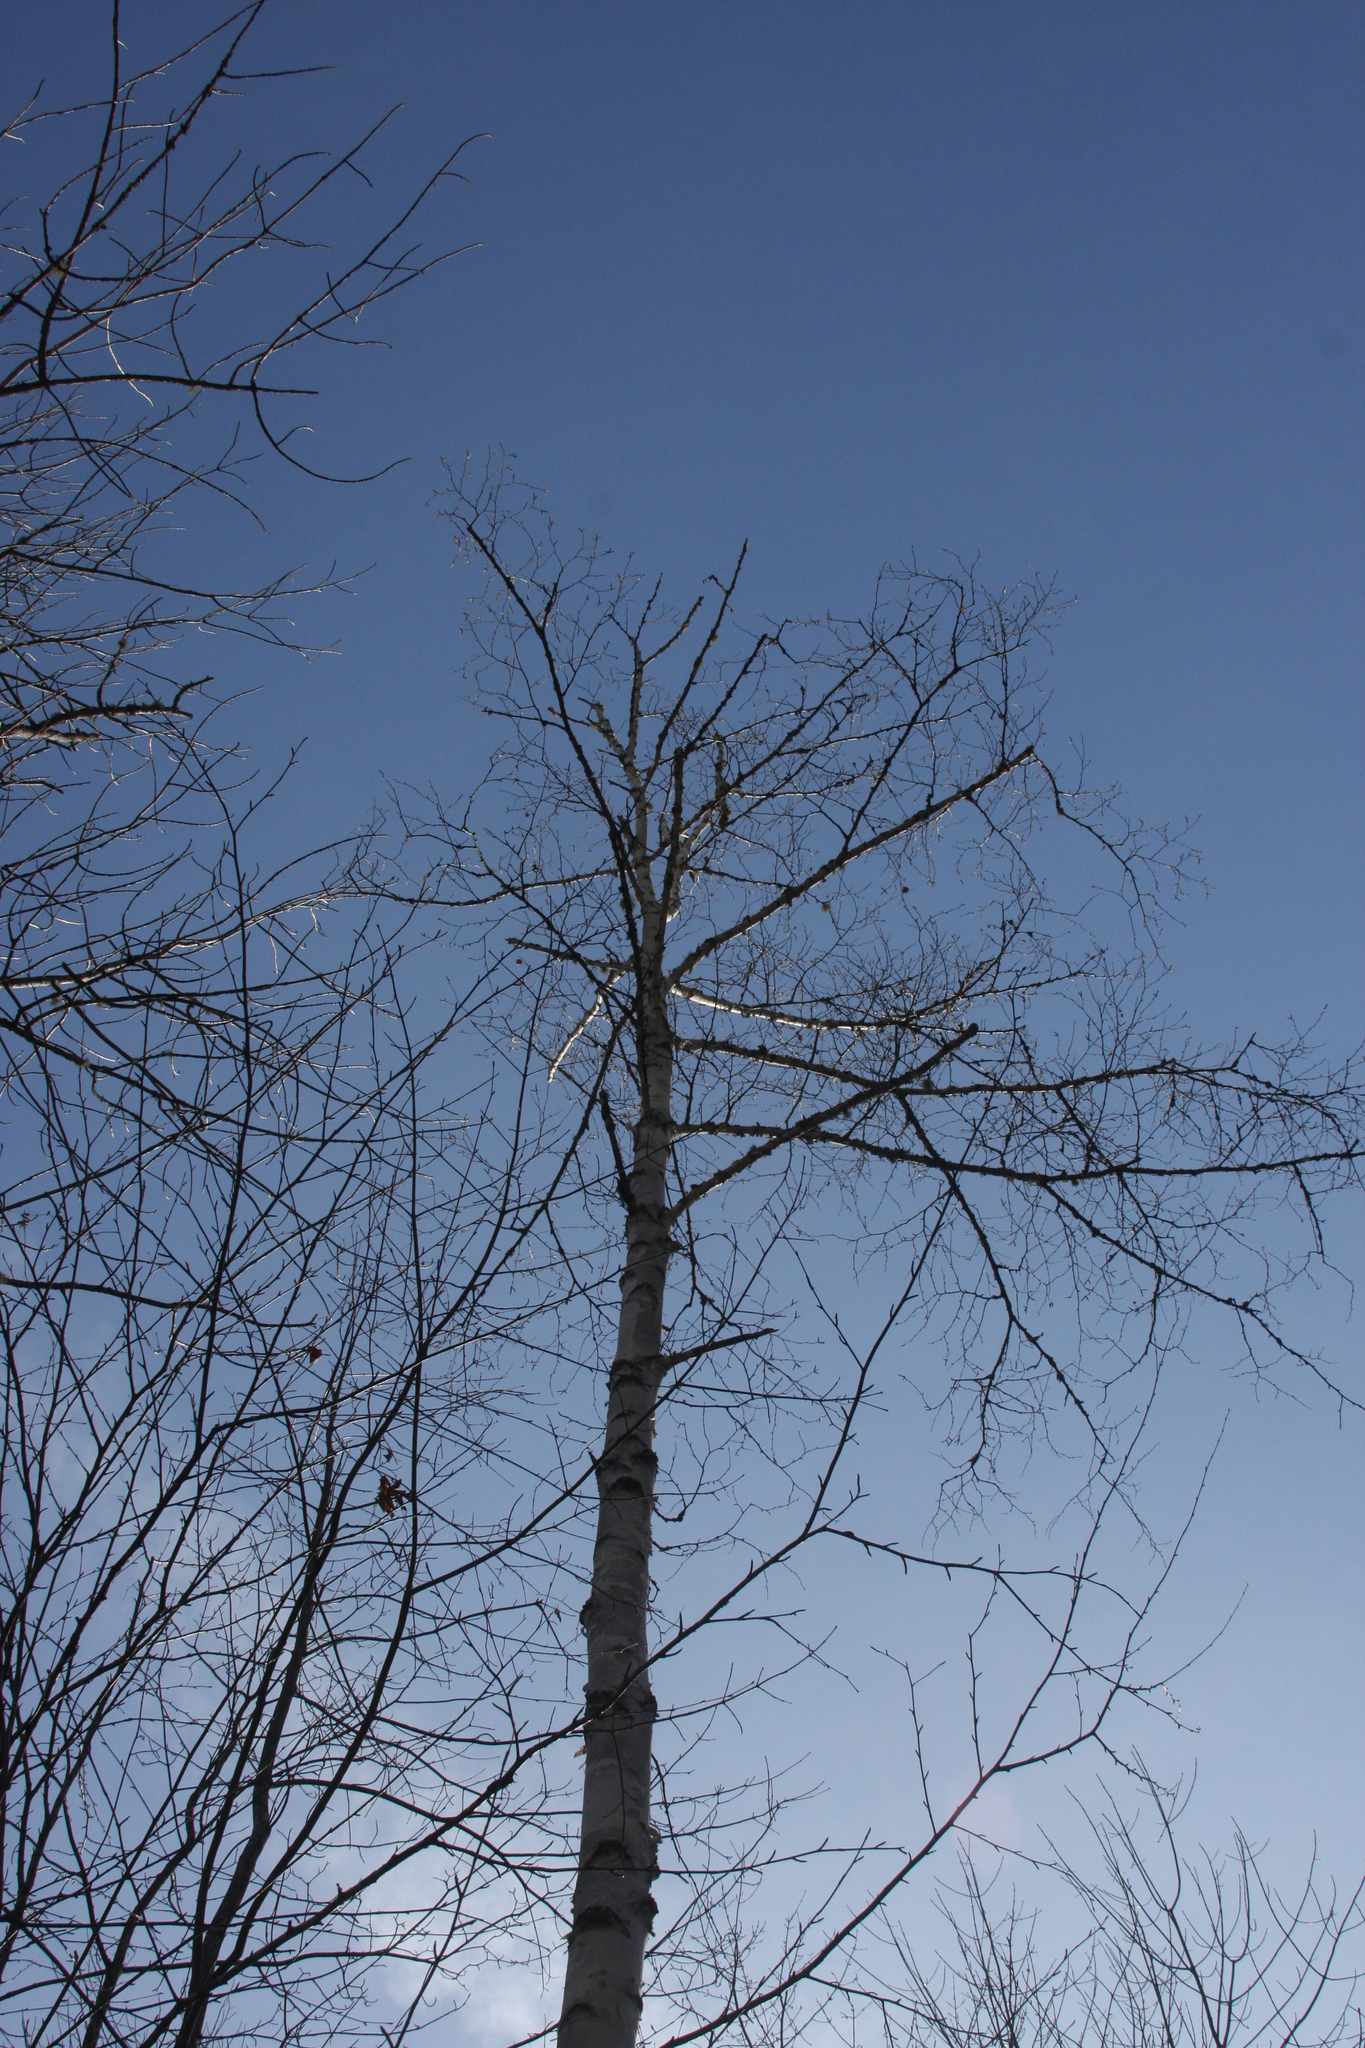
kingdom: Plantae
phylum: Tracheophyta
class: Magnoliopsida
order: Fagales
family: Betulaceae
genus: Betula
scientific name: Betula papyrifera
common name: Paper birch
